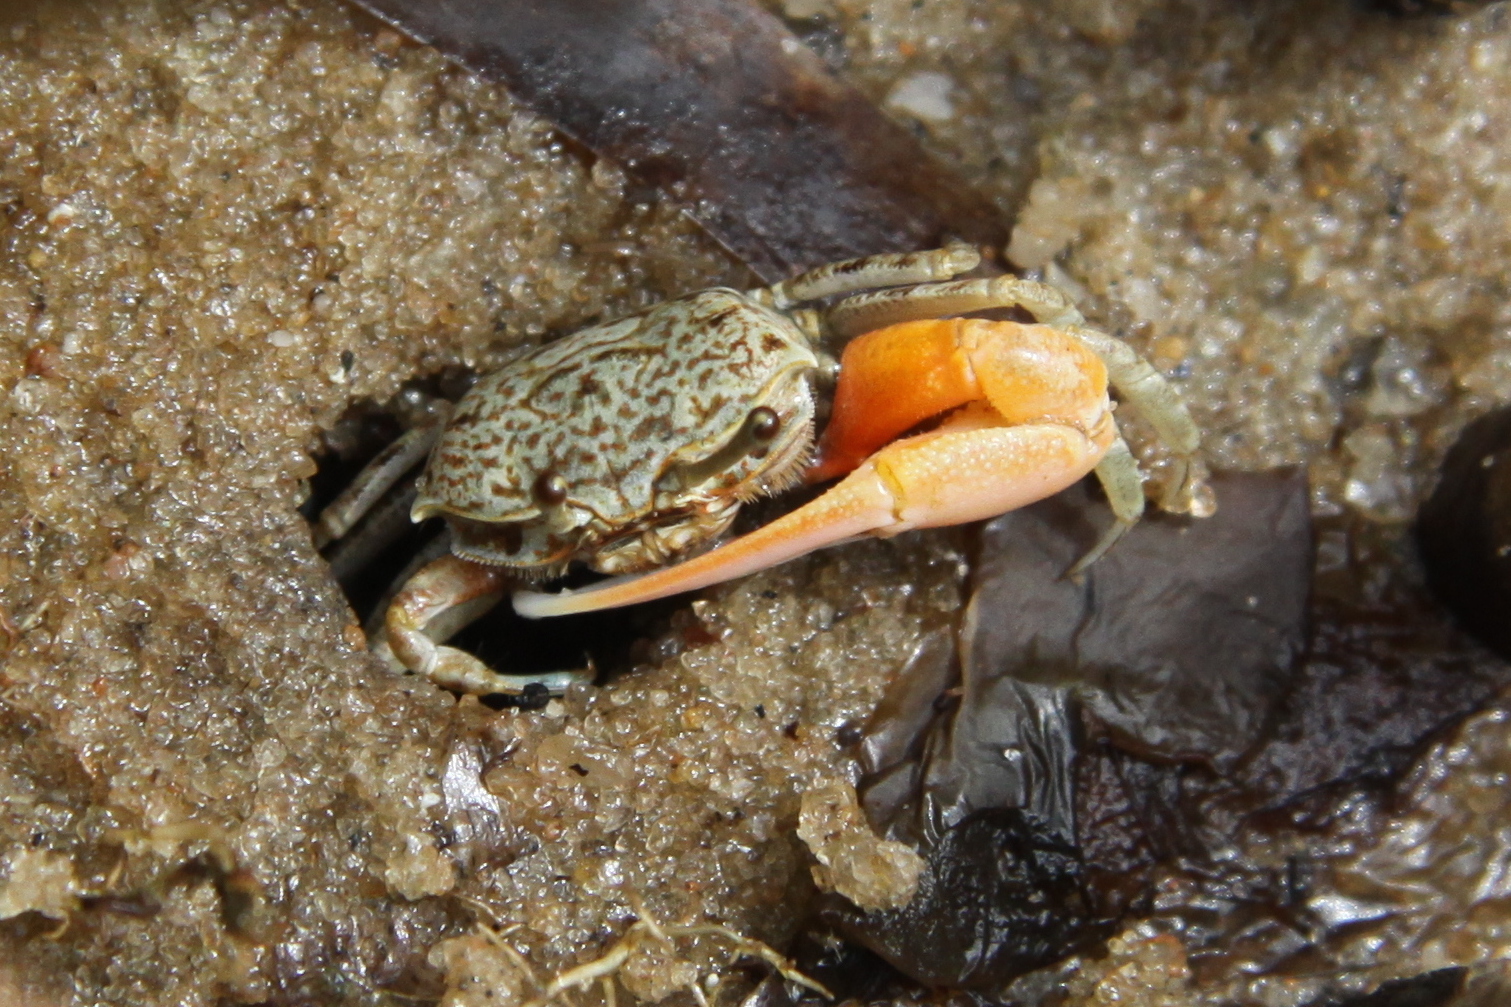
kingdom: Animalia
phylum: Arthropoda
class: Malacostraca
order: Decapoda
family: Ocypodidae
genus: Austruca
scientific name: Austruca occidentalis
